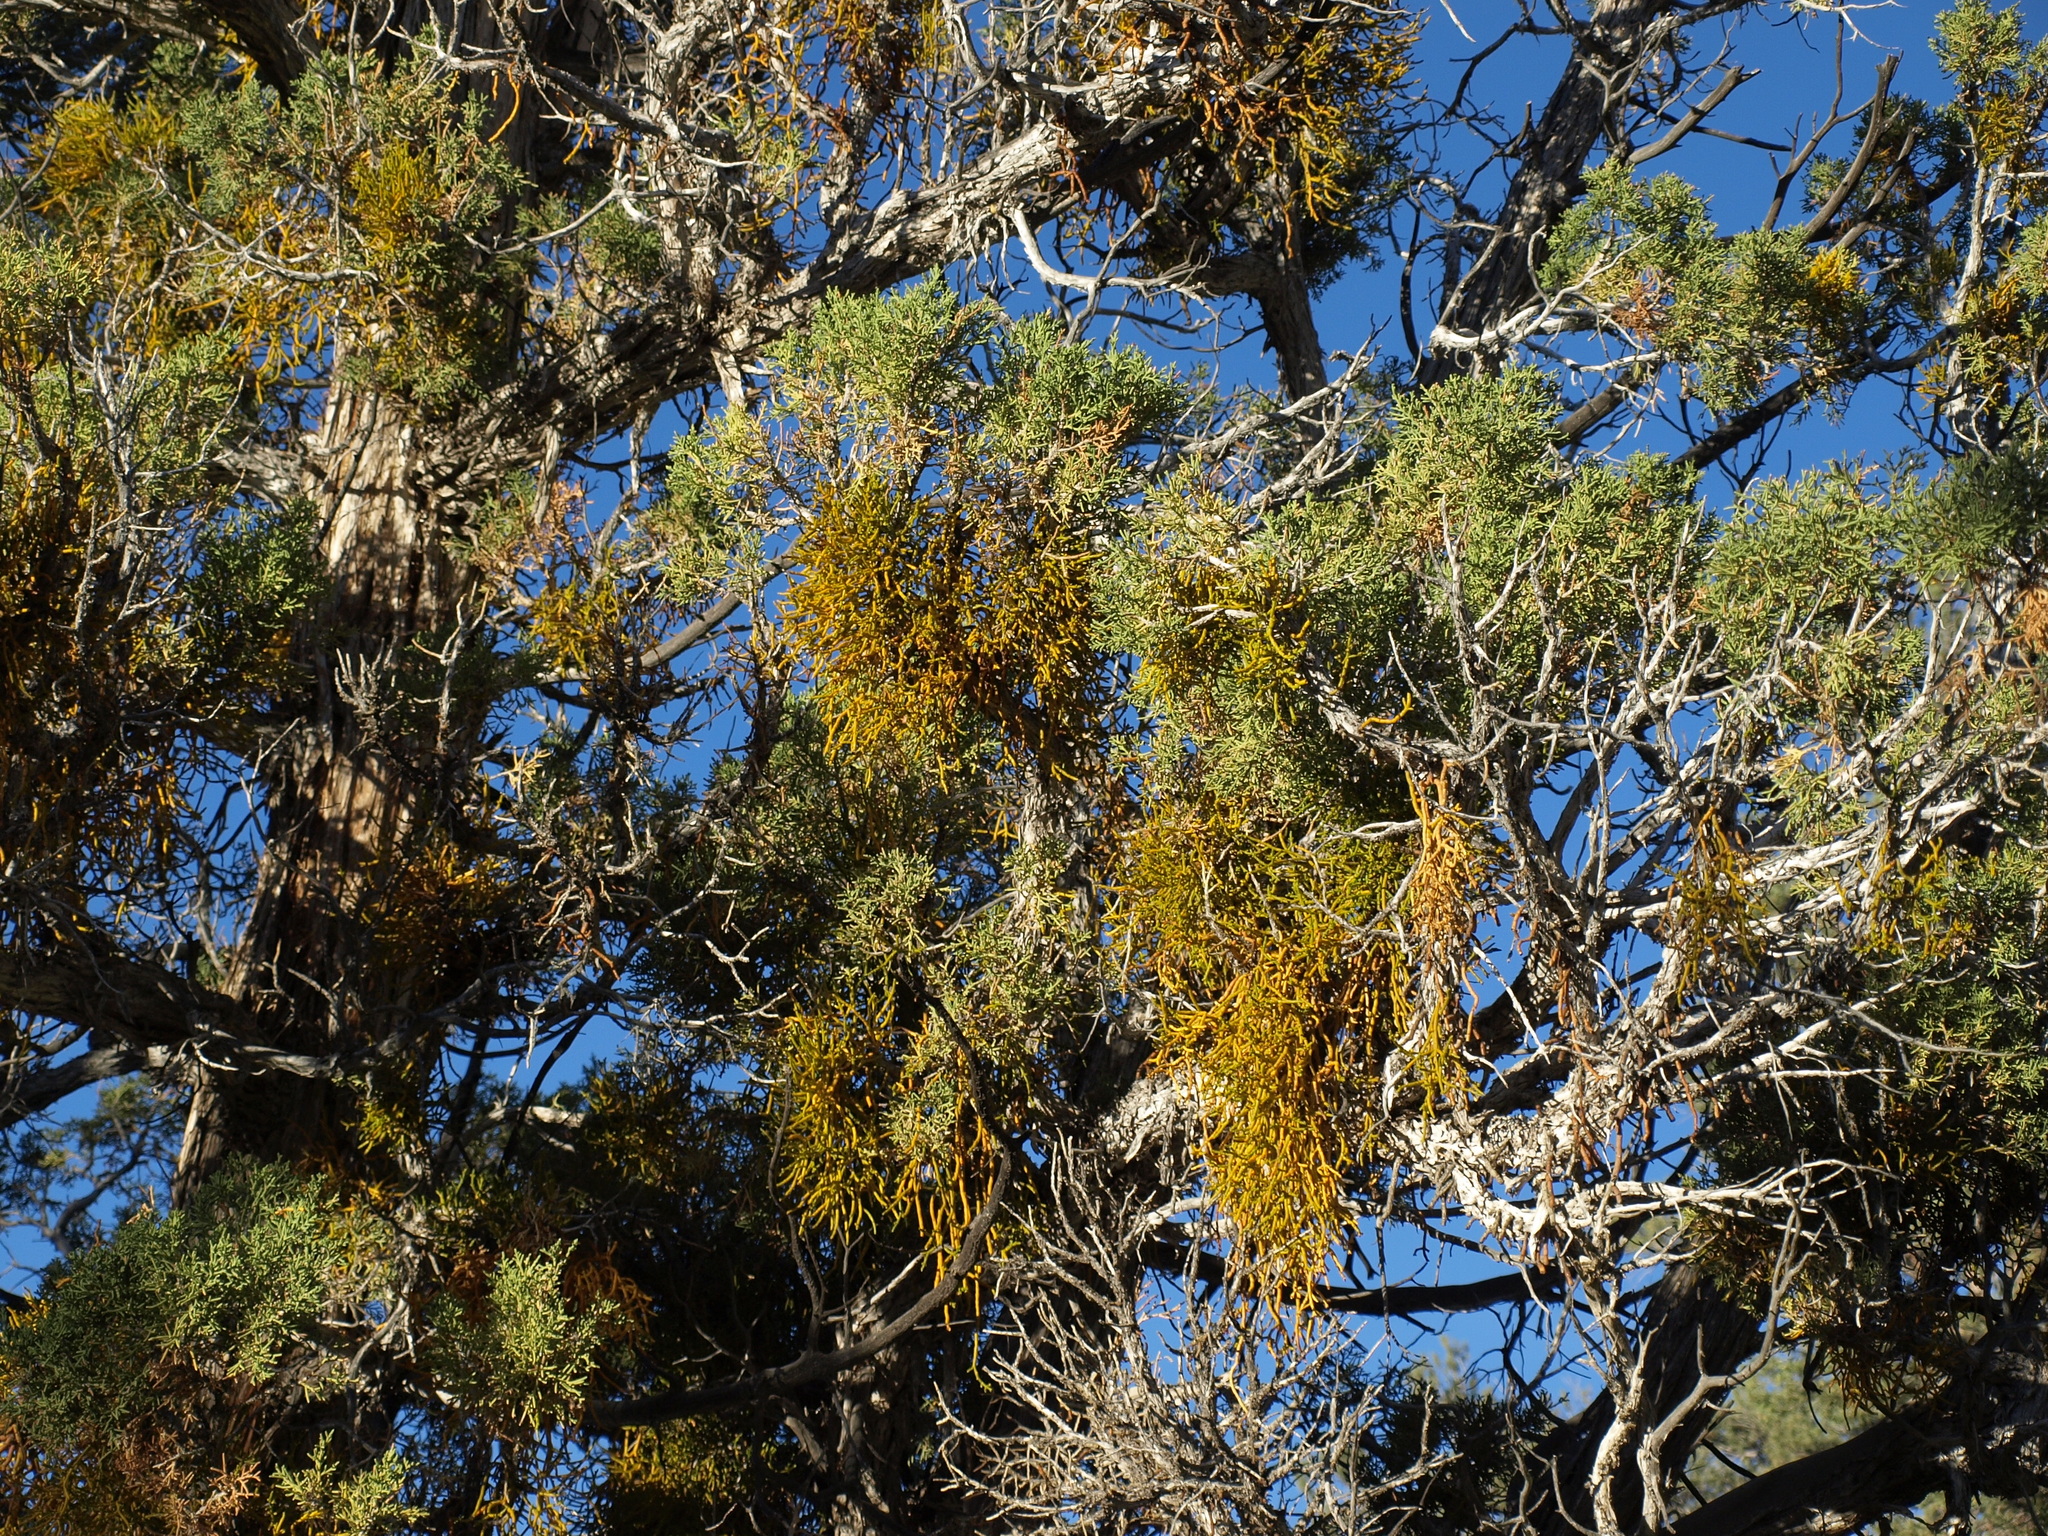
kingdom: Plantae
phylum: Tracheophyta
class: Pinopsida
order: Pinales
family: Cupressaceae
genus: Juniperus
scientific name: Juniperus osteosperma
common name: Utah juniper
